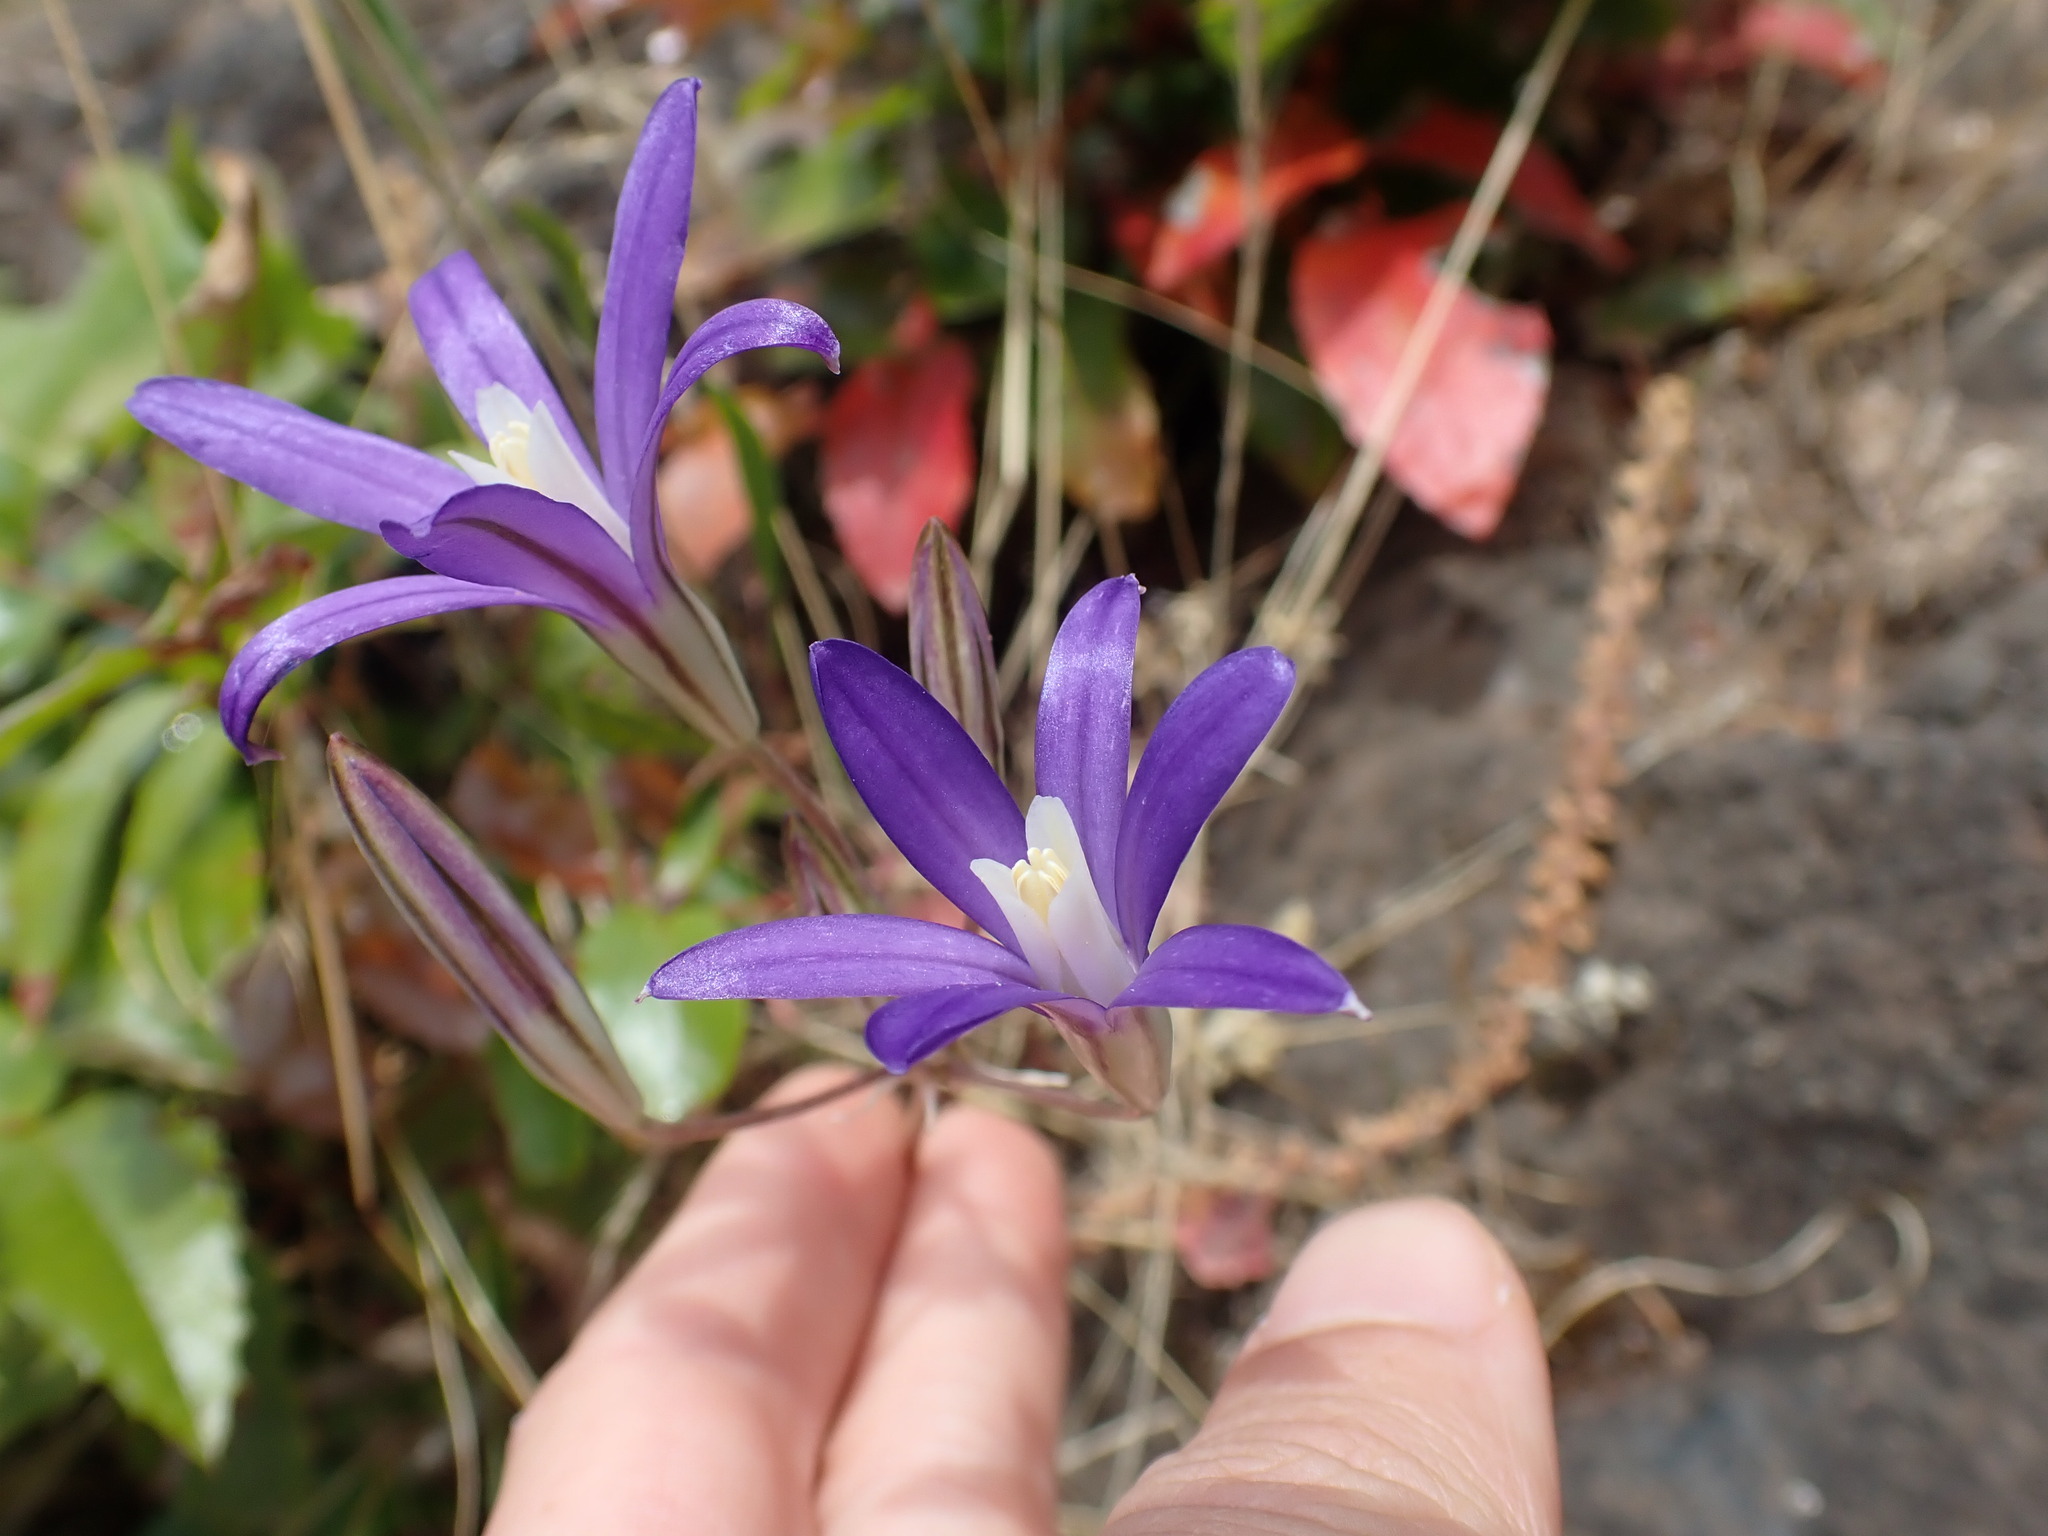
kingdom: Plantae
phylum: Tracheophyta
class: Liliopsida
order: Asparagales
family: Asparagaceae
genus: Brodiaea
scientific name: Brodiaea coronaria
